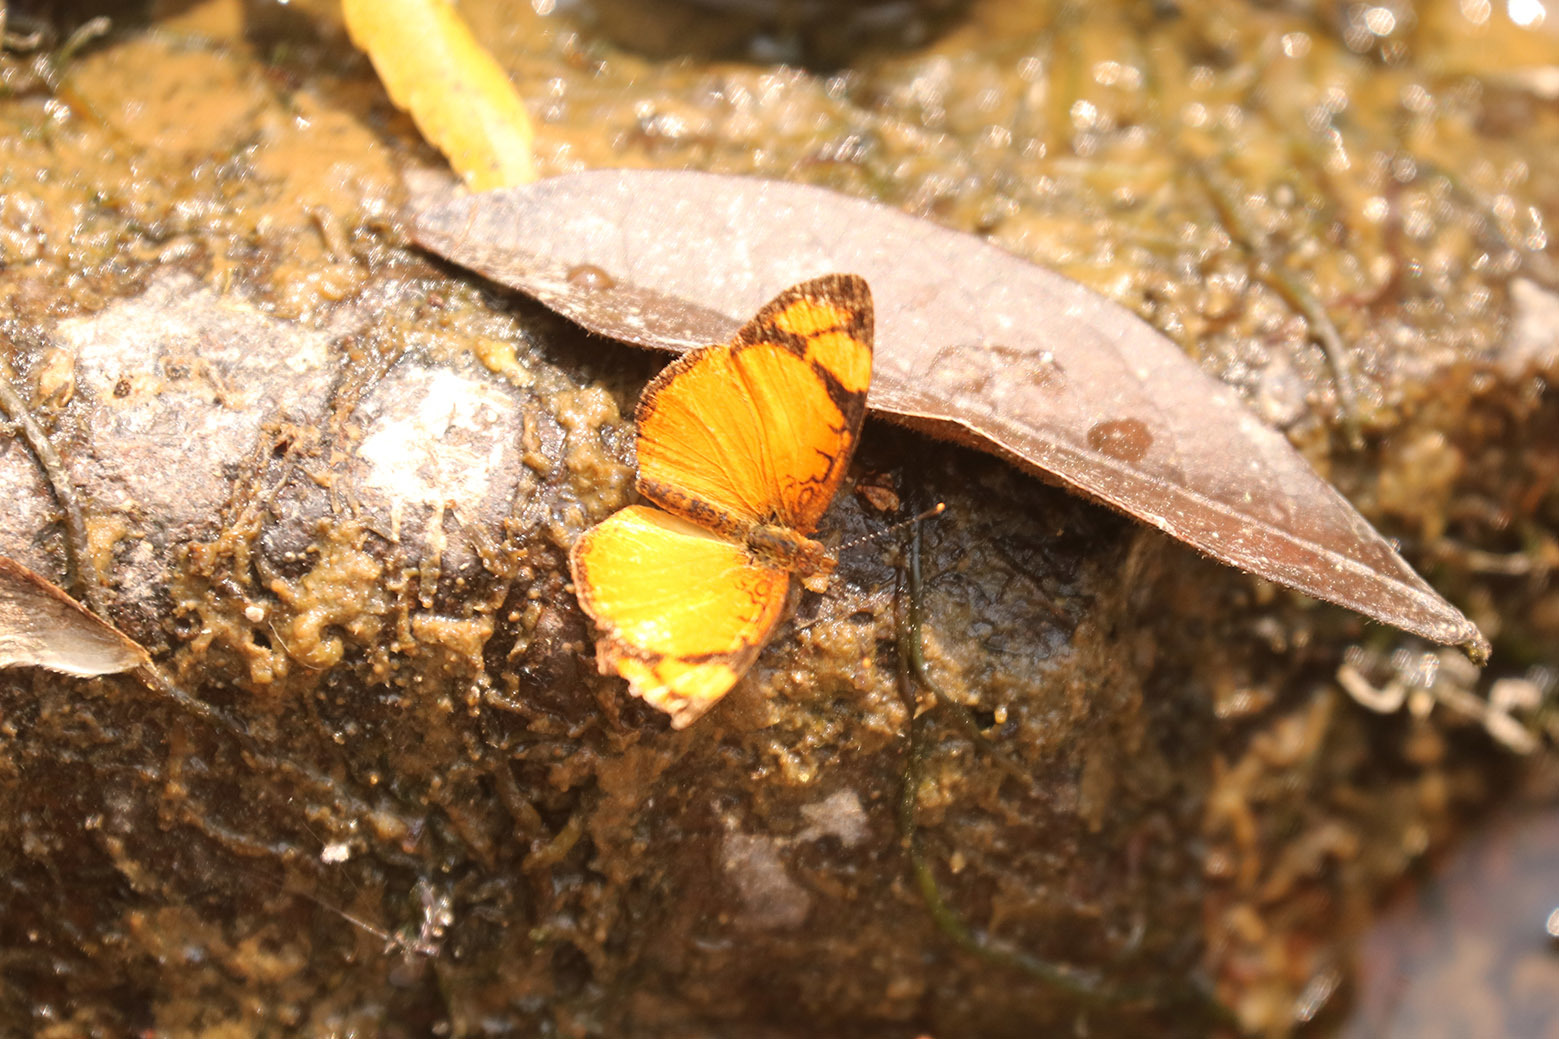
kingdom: Animalia
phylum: Arthropoda
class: Insecta
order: Lepidoptera
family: Nymphalidae
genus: Tegosa
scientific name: Tegosa claudina
